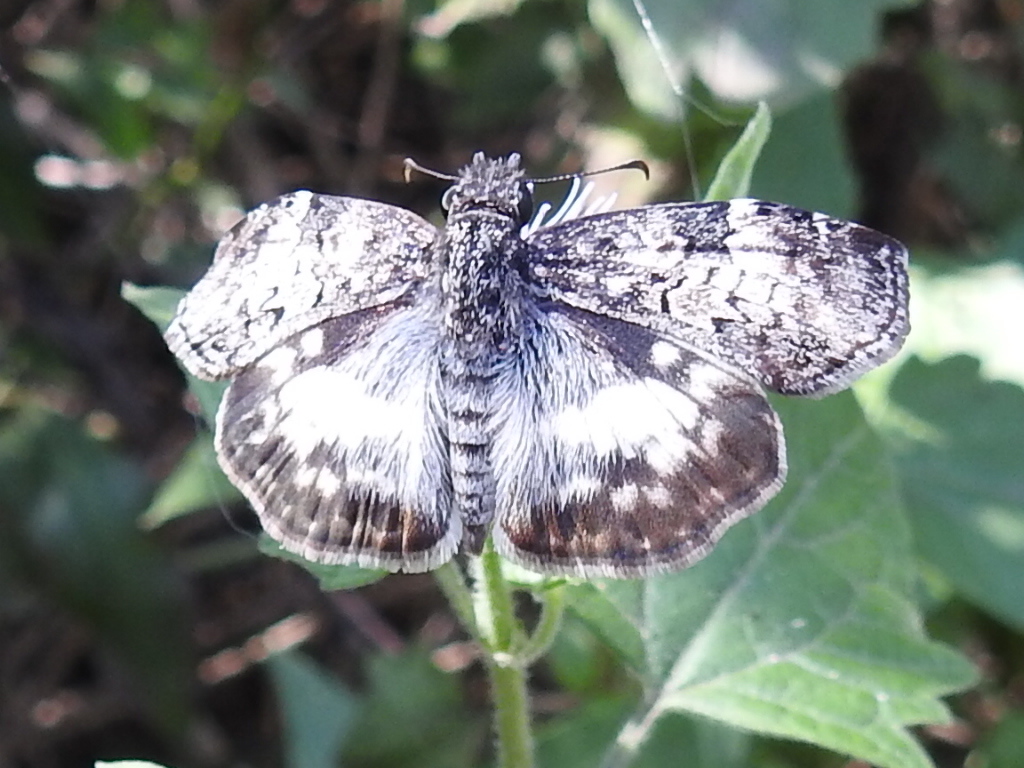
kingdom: Animalia
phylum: Arthropoda
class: Insecta
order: Lepidoptera
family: Hesperiidae
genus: Chiothion
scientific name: Chiothion georgina
